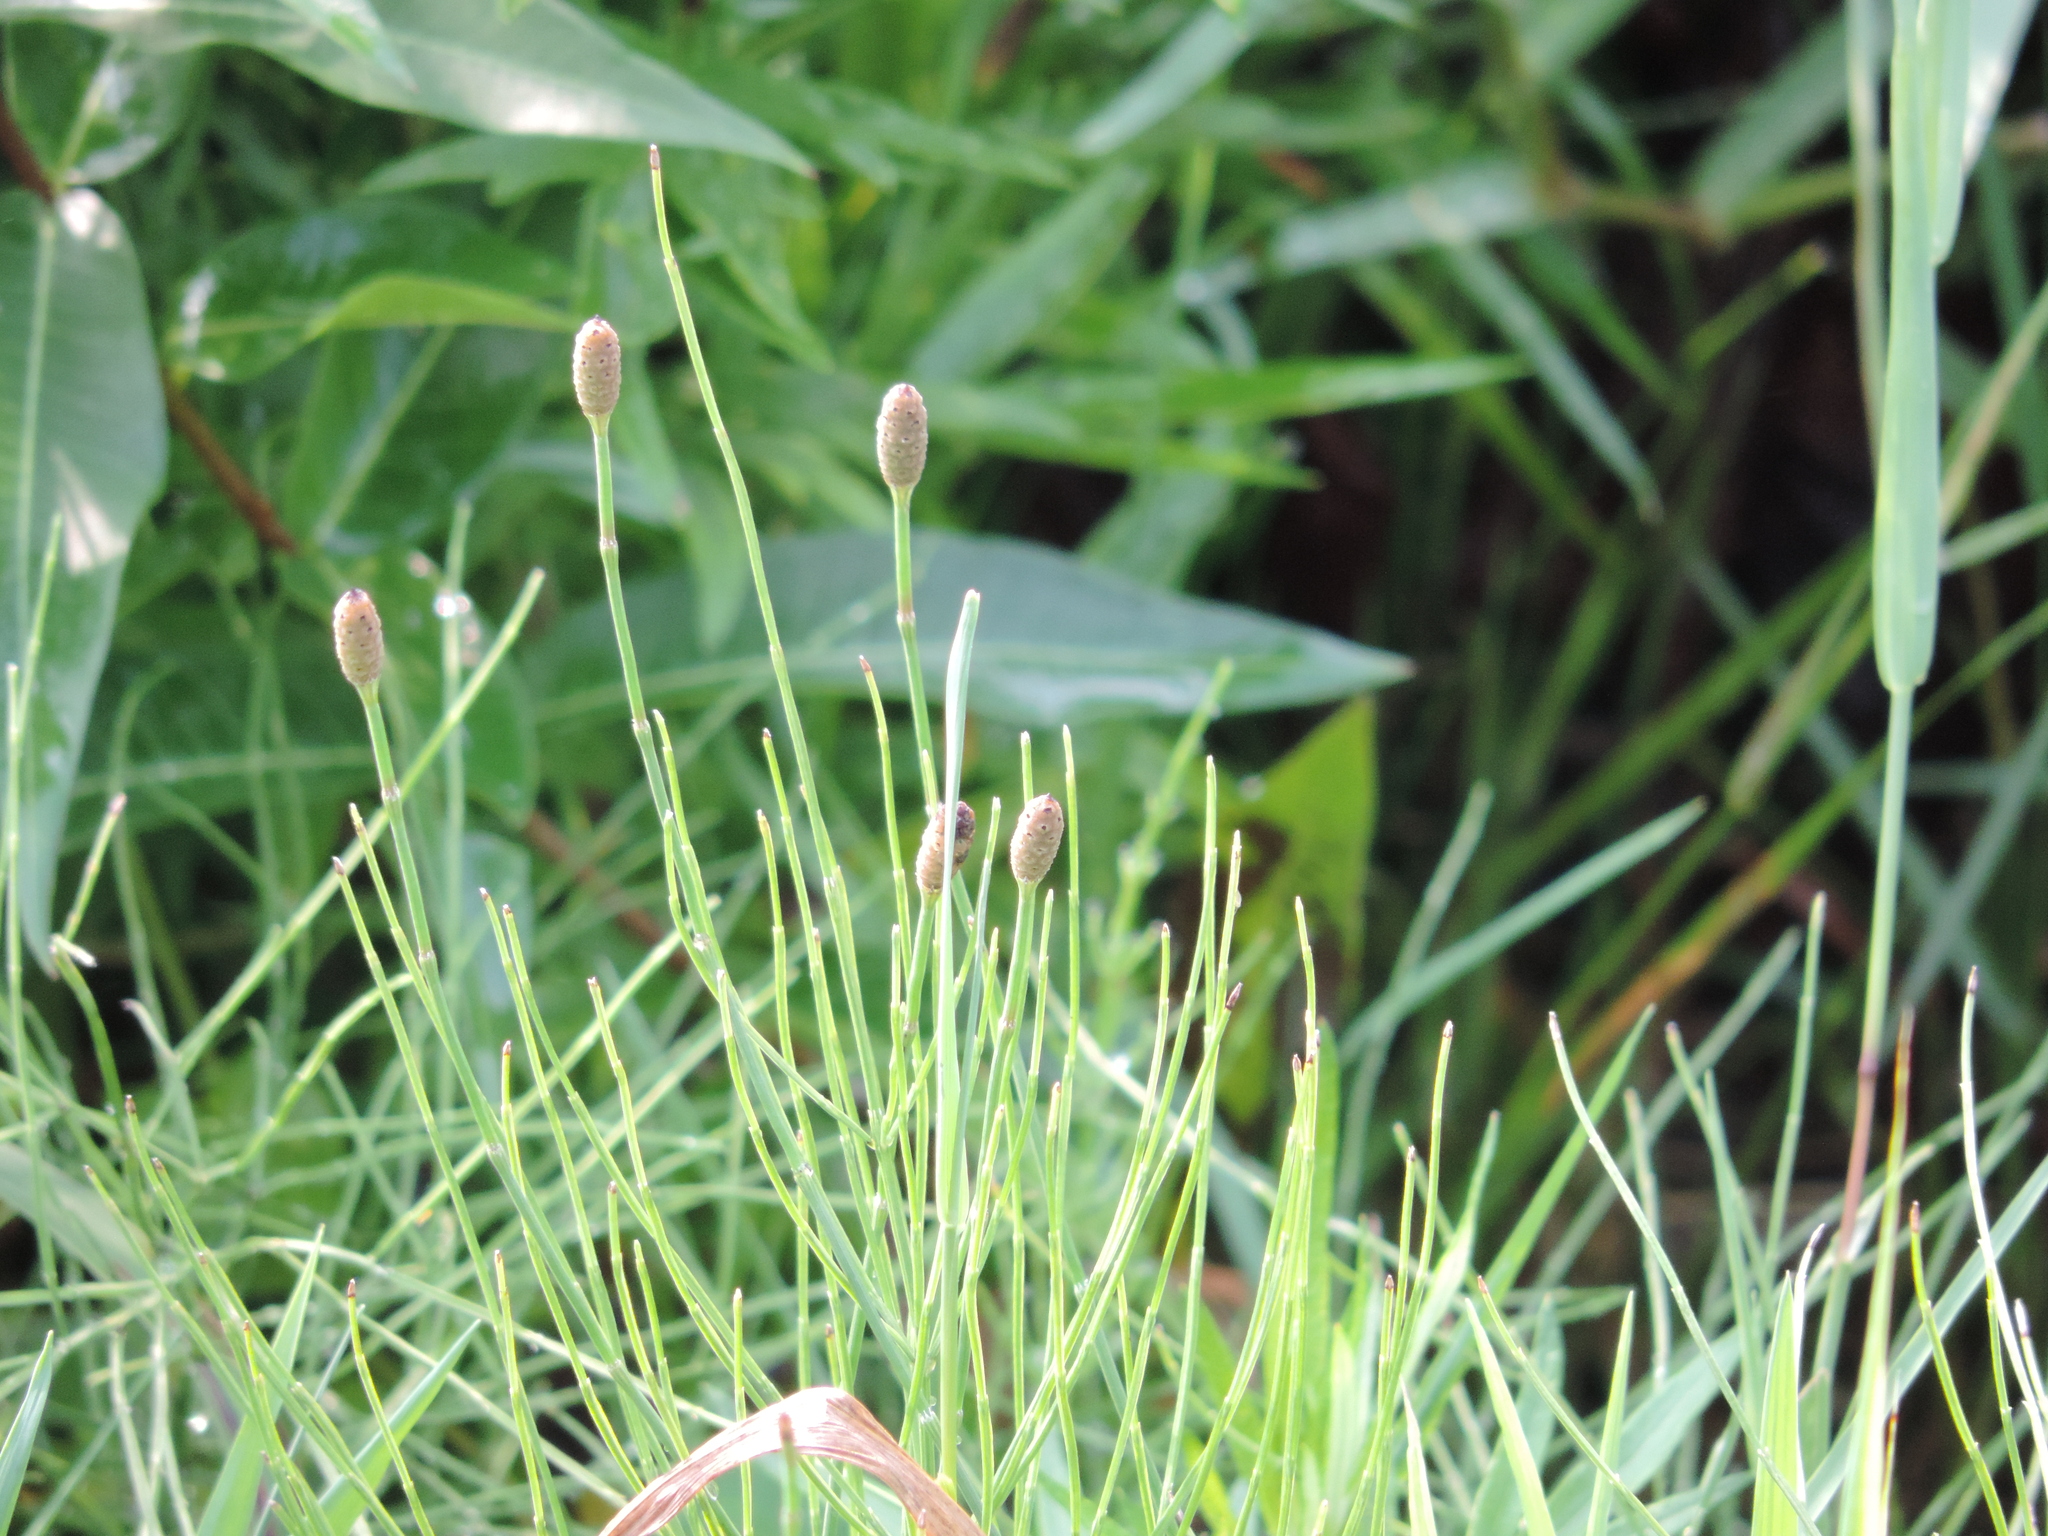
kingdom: Plantae
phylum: Tracheophyta
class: Polypodiopsida
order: Equisetales
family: Equisetaceae
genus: Equisetum
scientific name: Equisetum ramosissimum
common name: Branched horsetail
